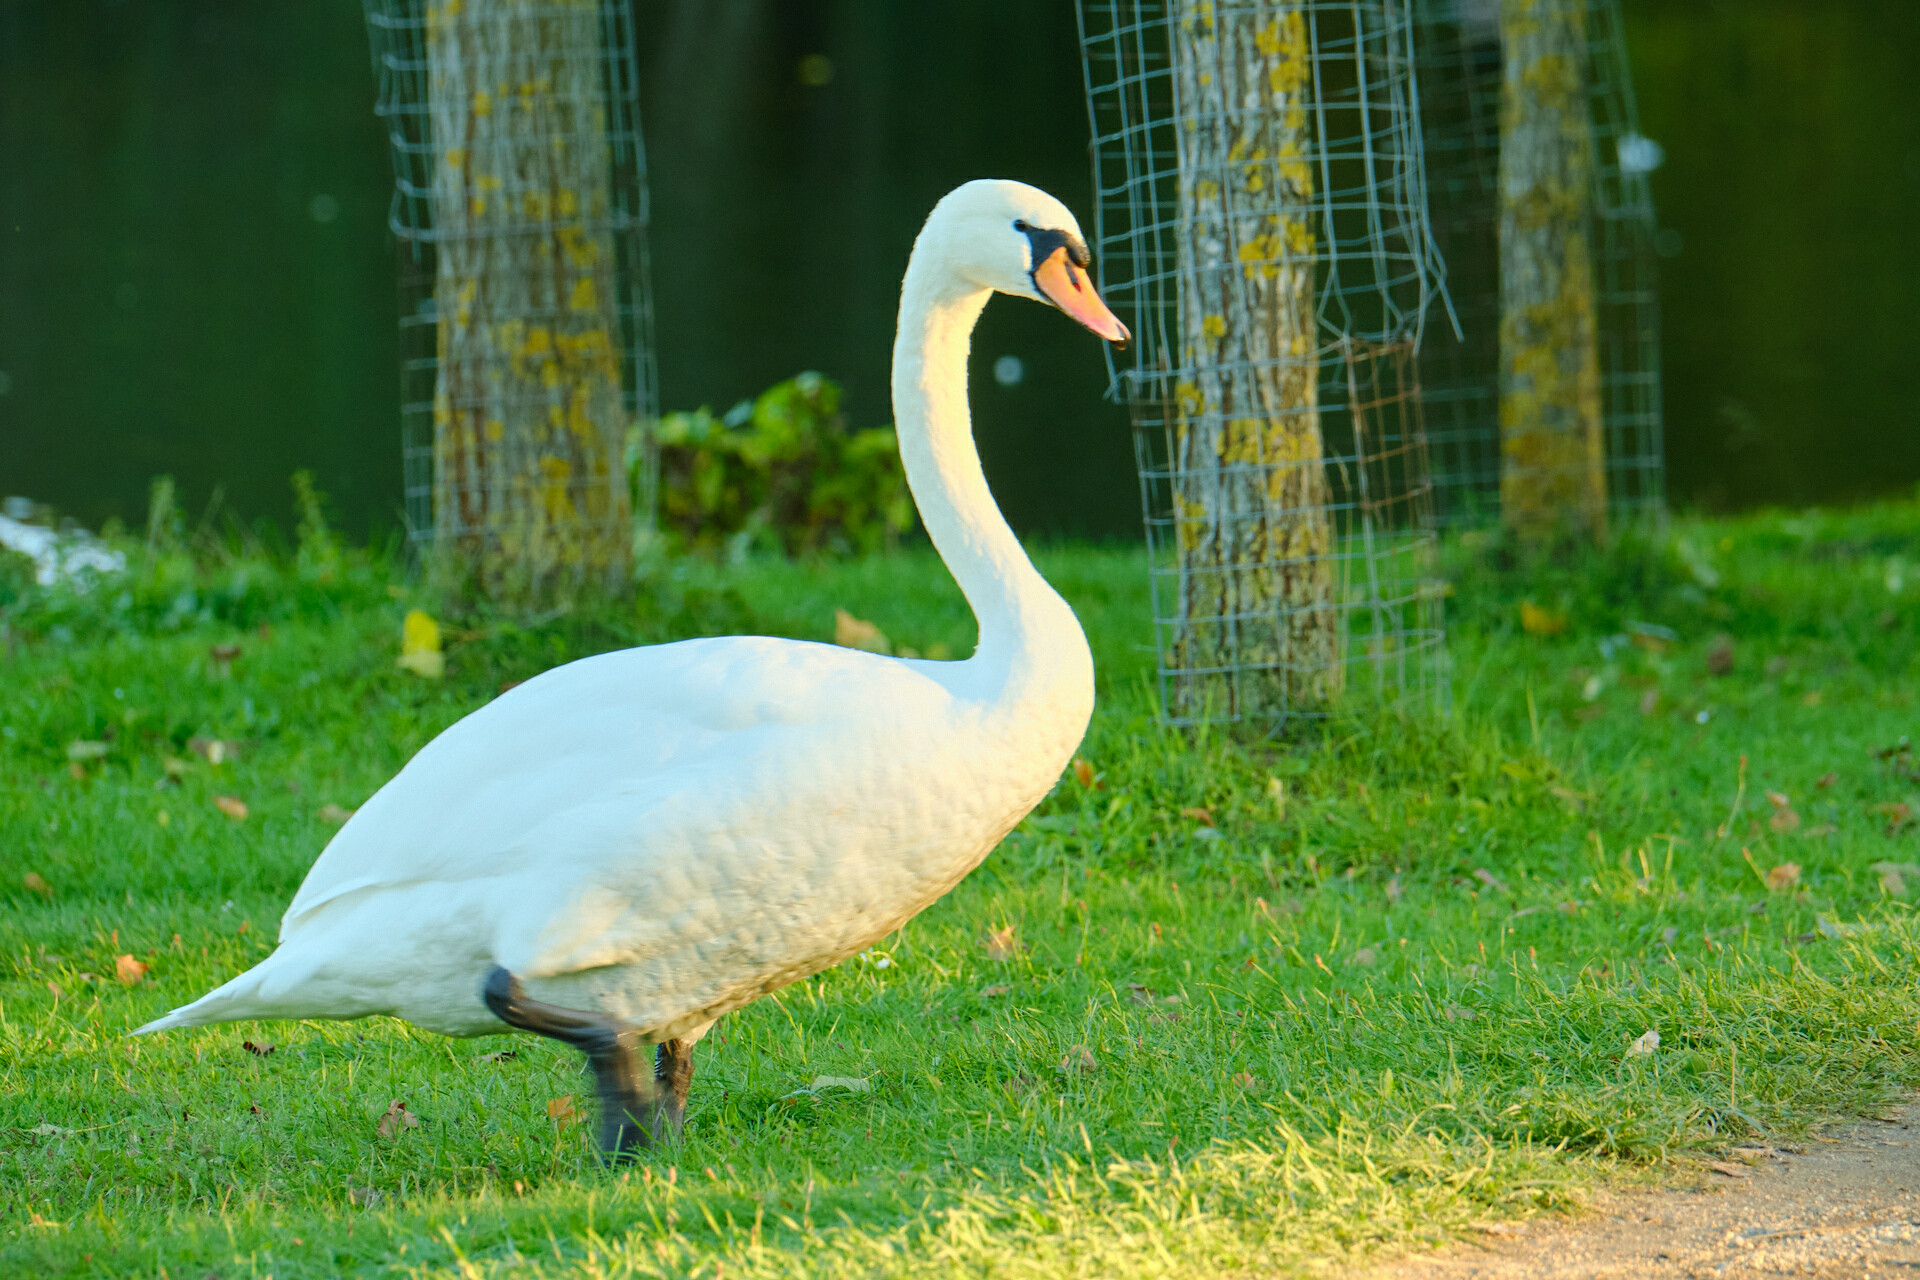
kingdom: Animalia
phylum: Chordata
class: Aves
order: Anseriformes
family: Anatidae
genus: Cygnus
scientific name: Cygnus olor
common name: Mute swan
